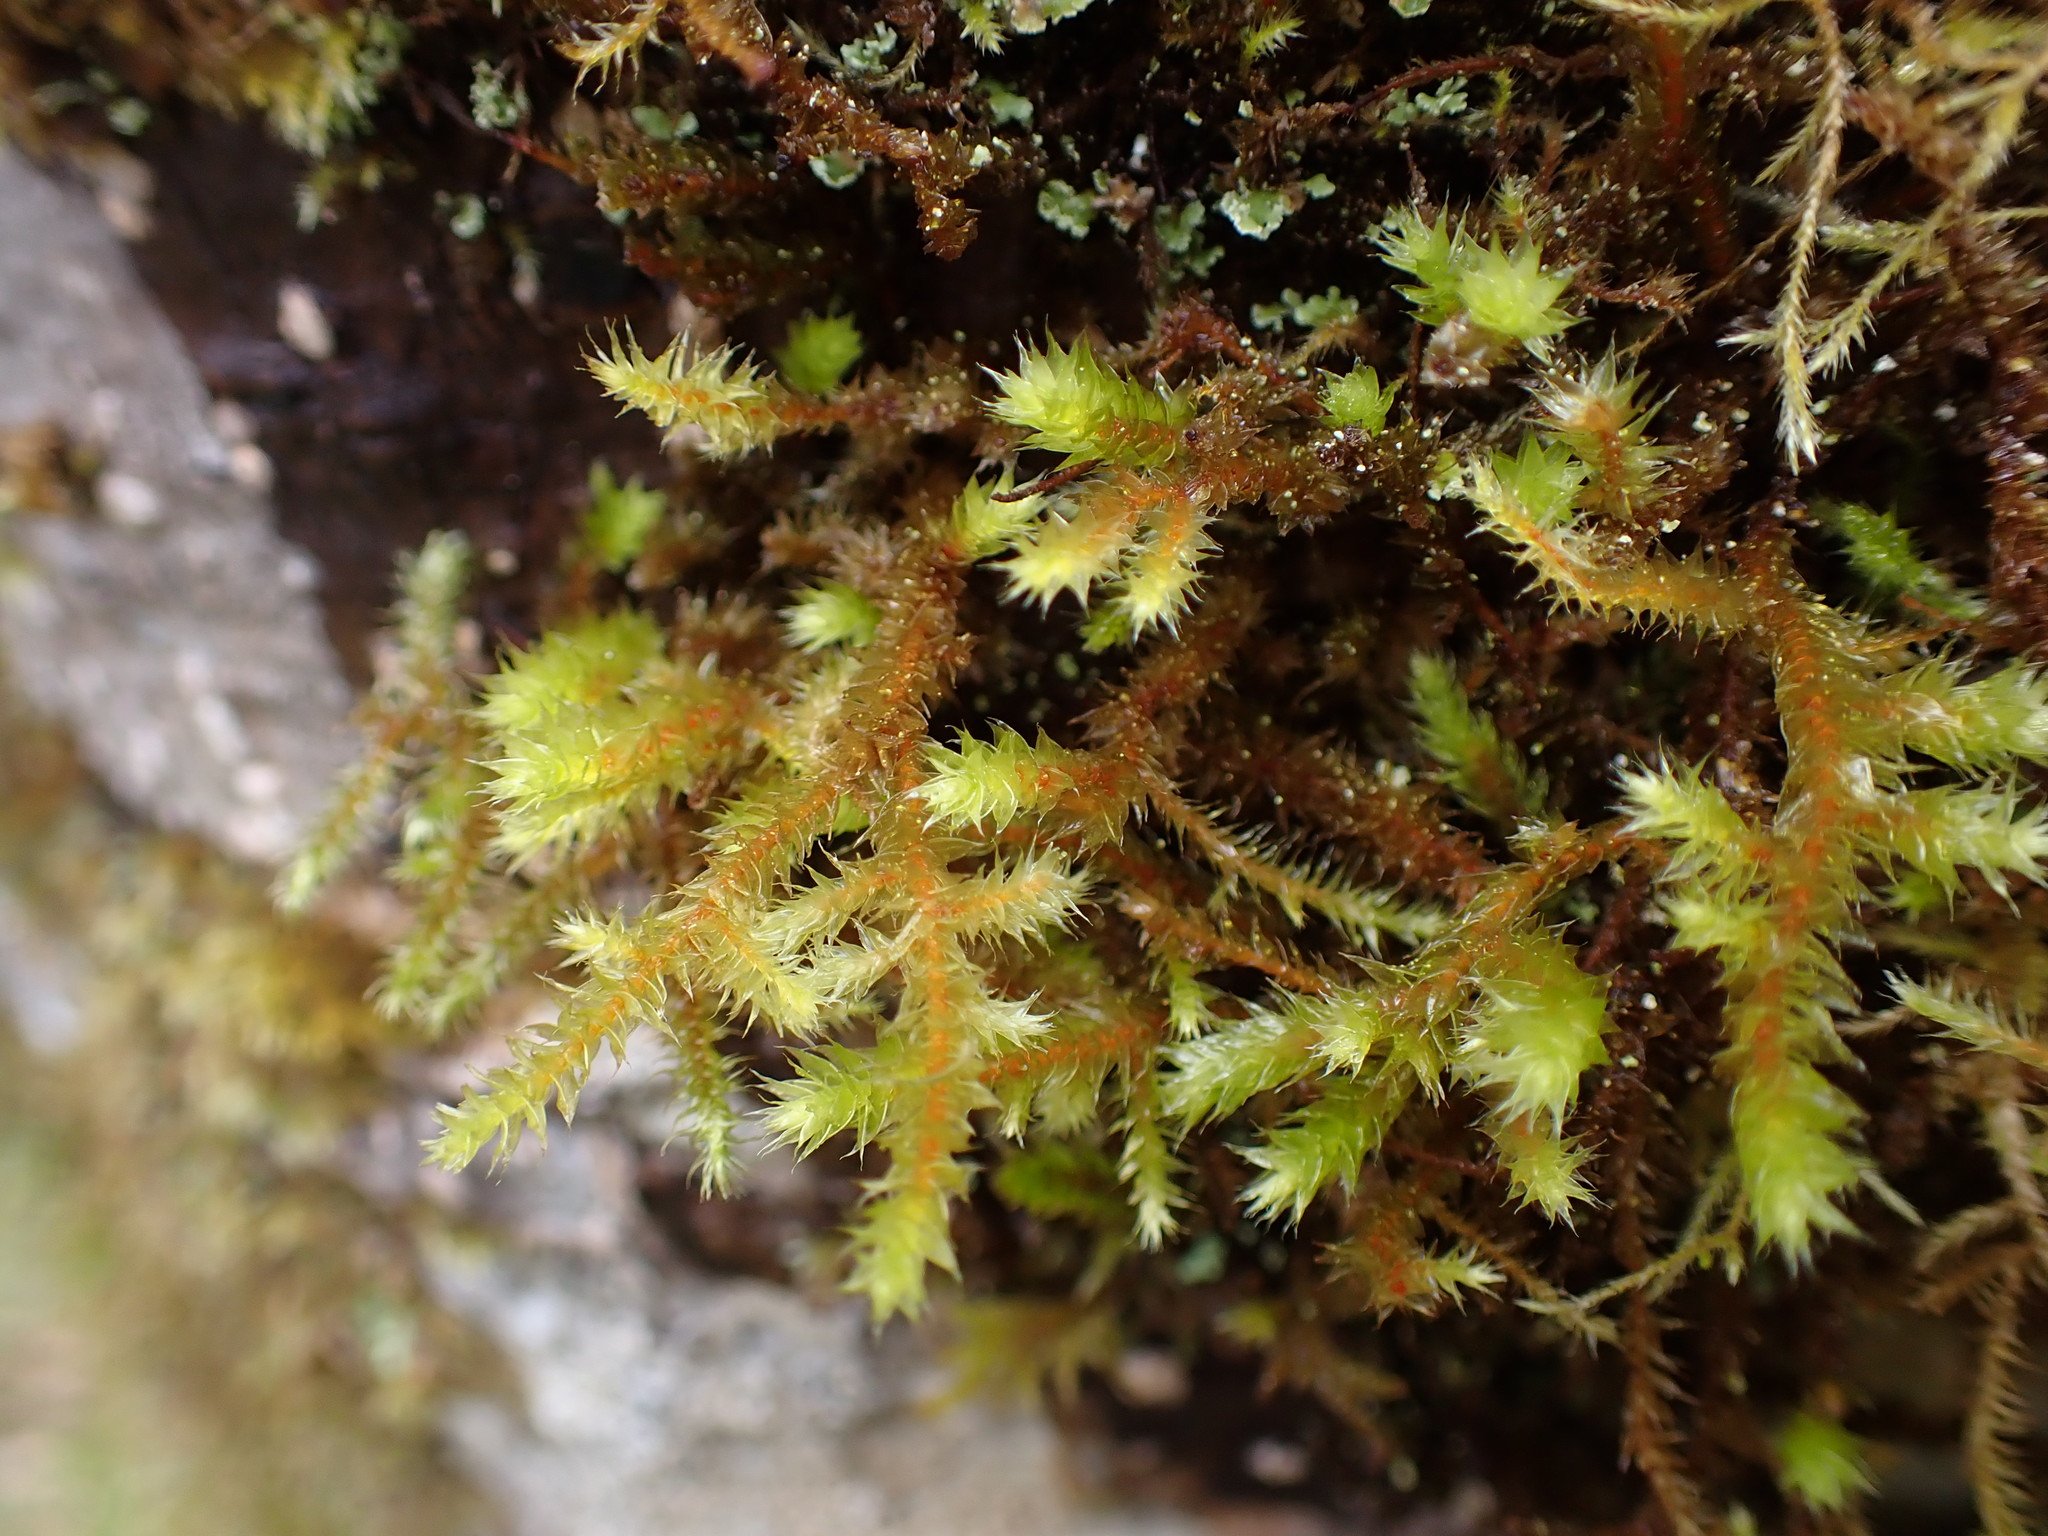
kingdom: Plantae
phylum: Bryophyta
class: Bryopsida
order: Hypnales
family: Antitrichiaceae
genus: Antitrichia
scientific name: Antitrichia curtipendula
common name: Pendulous wing-moss
